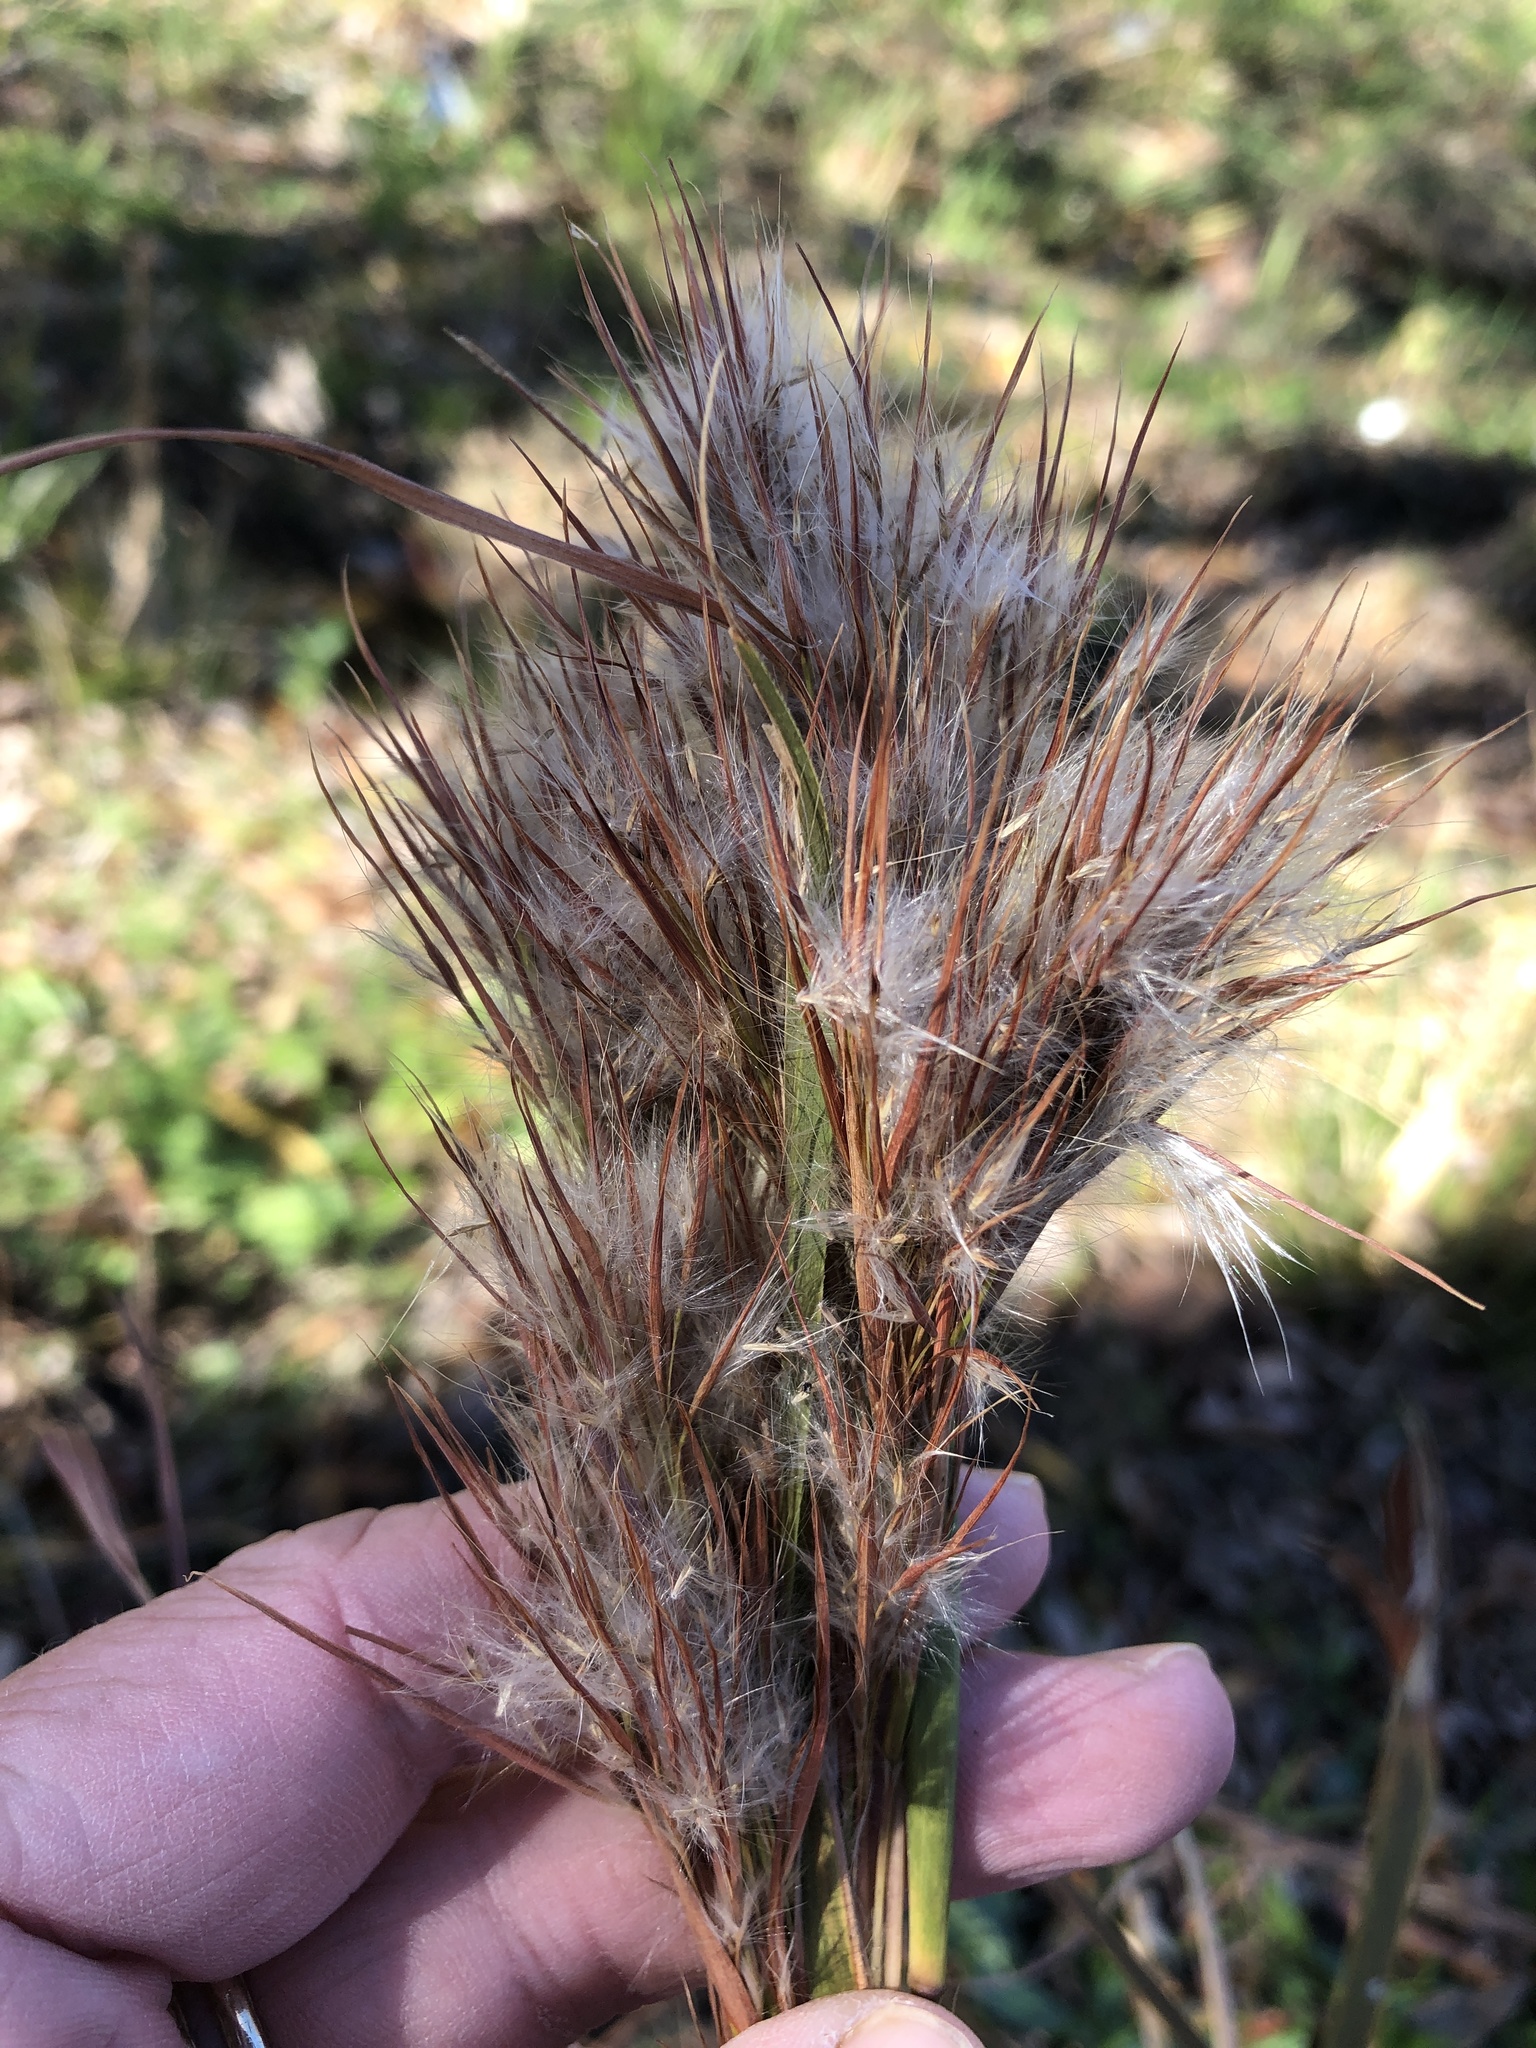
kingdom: Plantae
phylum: Tracheophyta
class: Liliopsida
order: Poales
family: Poaceae
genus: Andropogon
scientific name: Andropogon tenuispatheus
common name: Bushy bluestem
